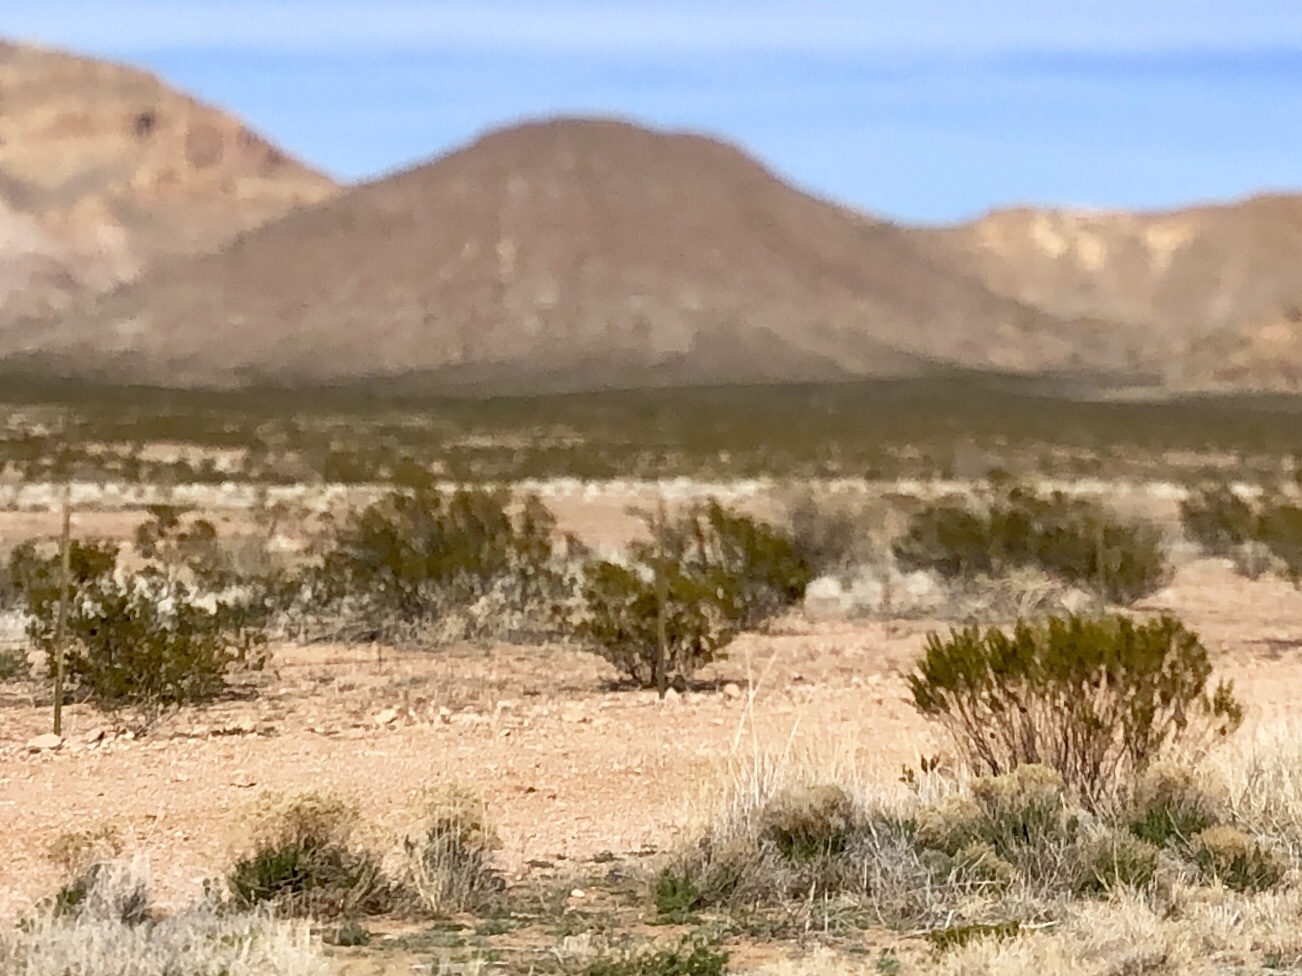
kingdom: Plantae
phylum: Tracheophyta
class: Magnoliopsida
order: Zygophyllales
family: Zygophyllaceae
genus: Larrea
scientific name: Larrea tridentata
